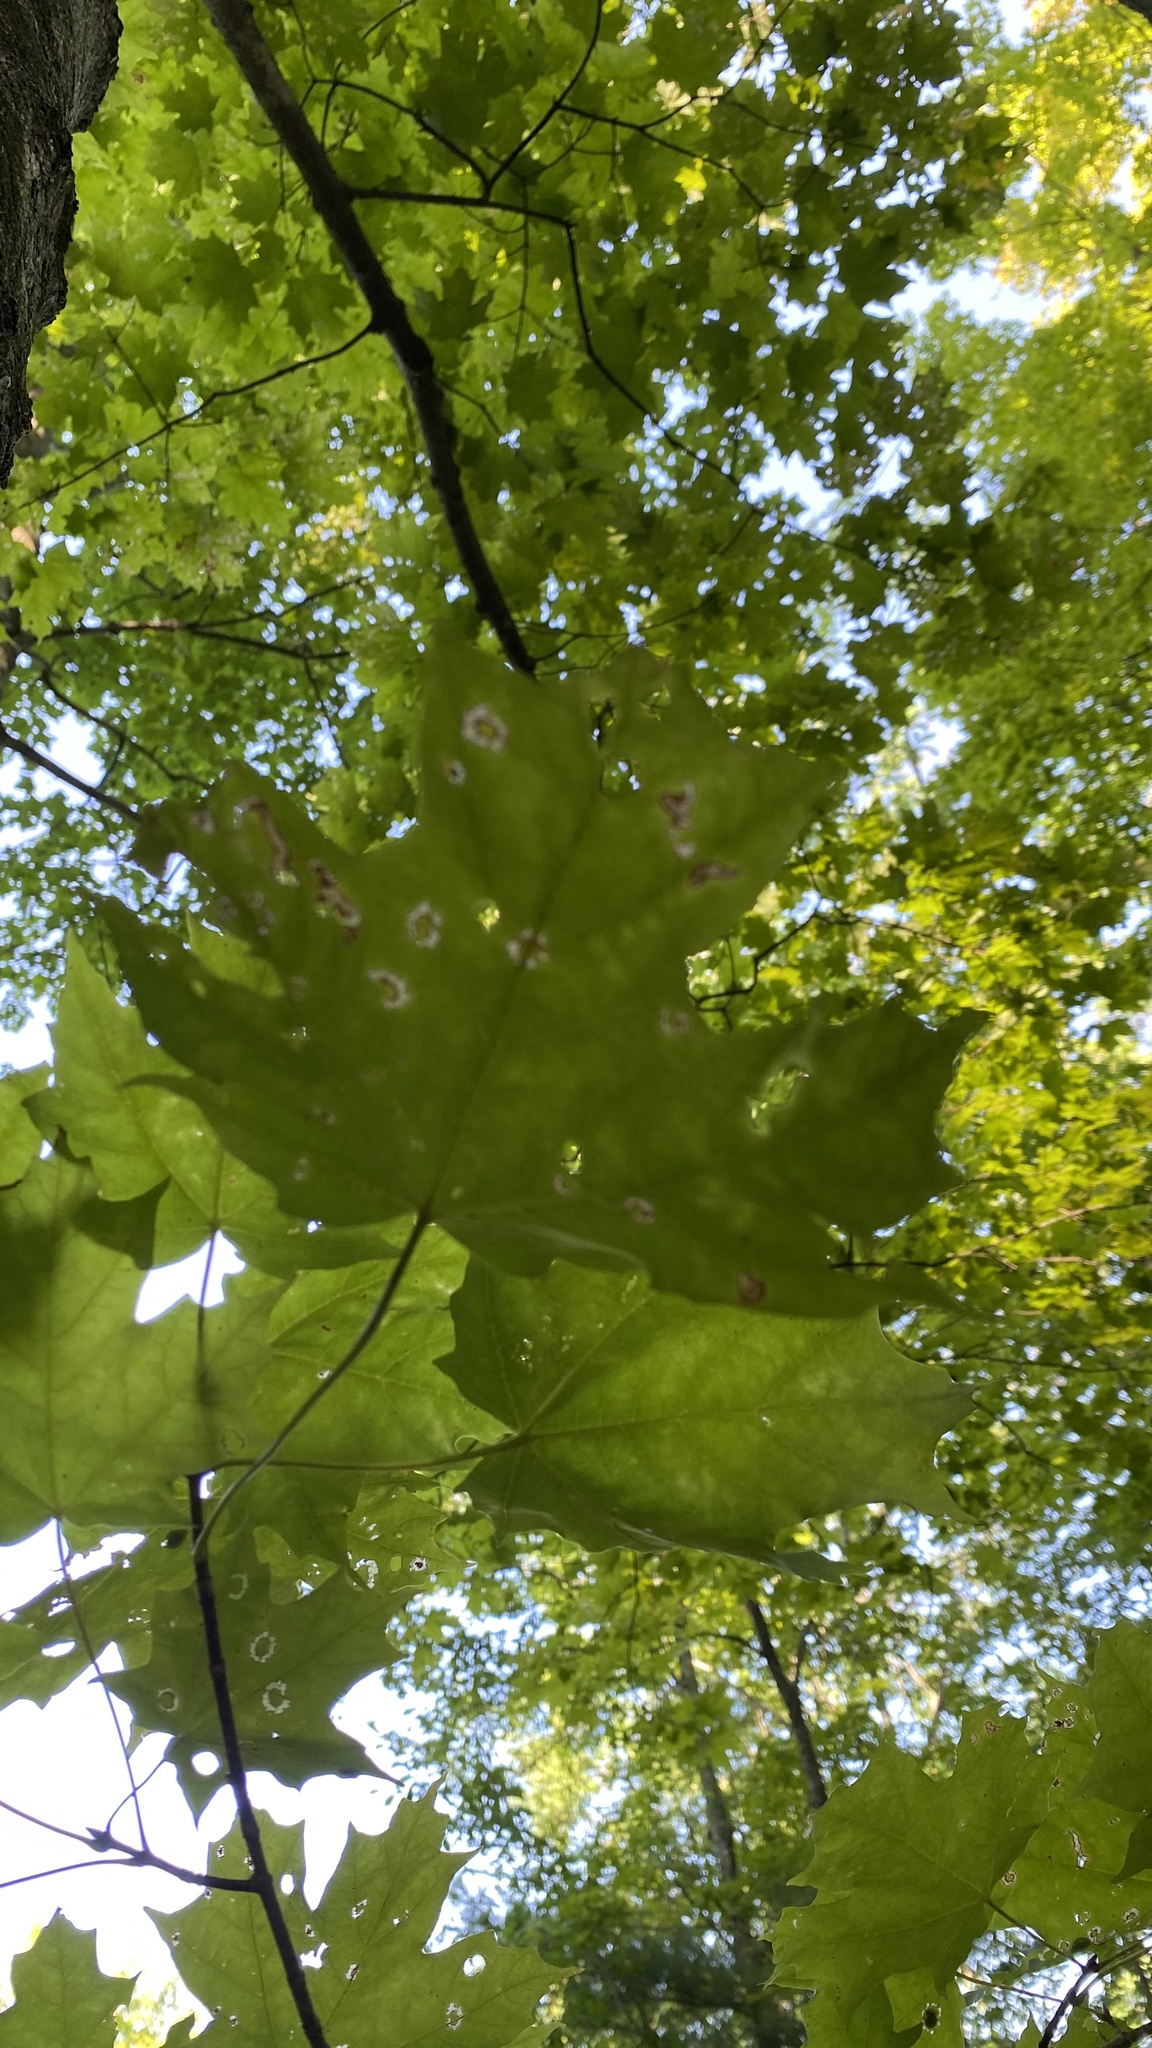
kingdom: Plantae
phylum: Tracheophyta
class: Magnoliopsida
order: Sapindales
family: Sapindaceae
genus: Acer
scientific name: Acer saccharum
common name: Sugar maple
